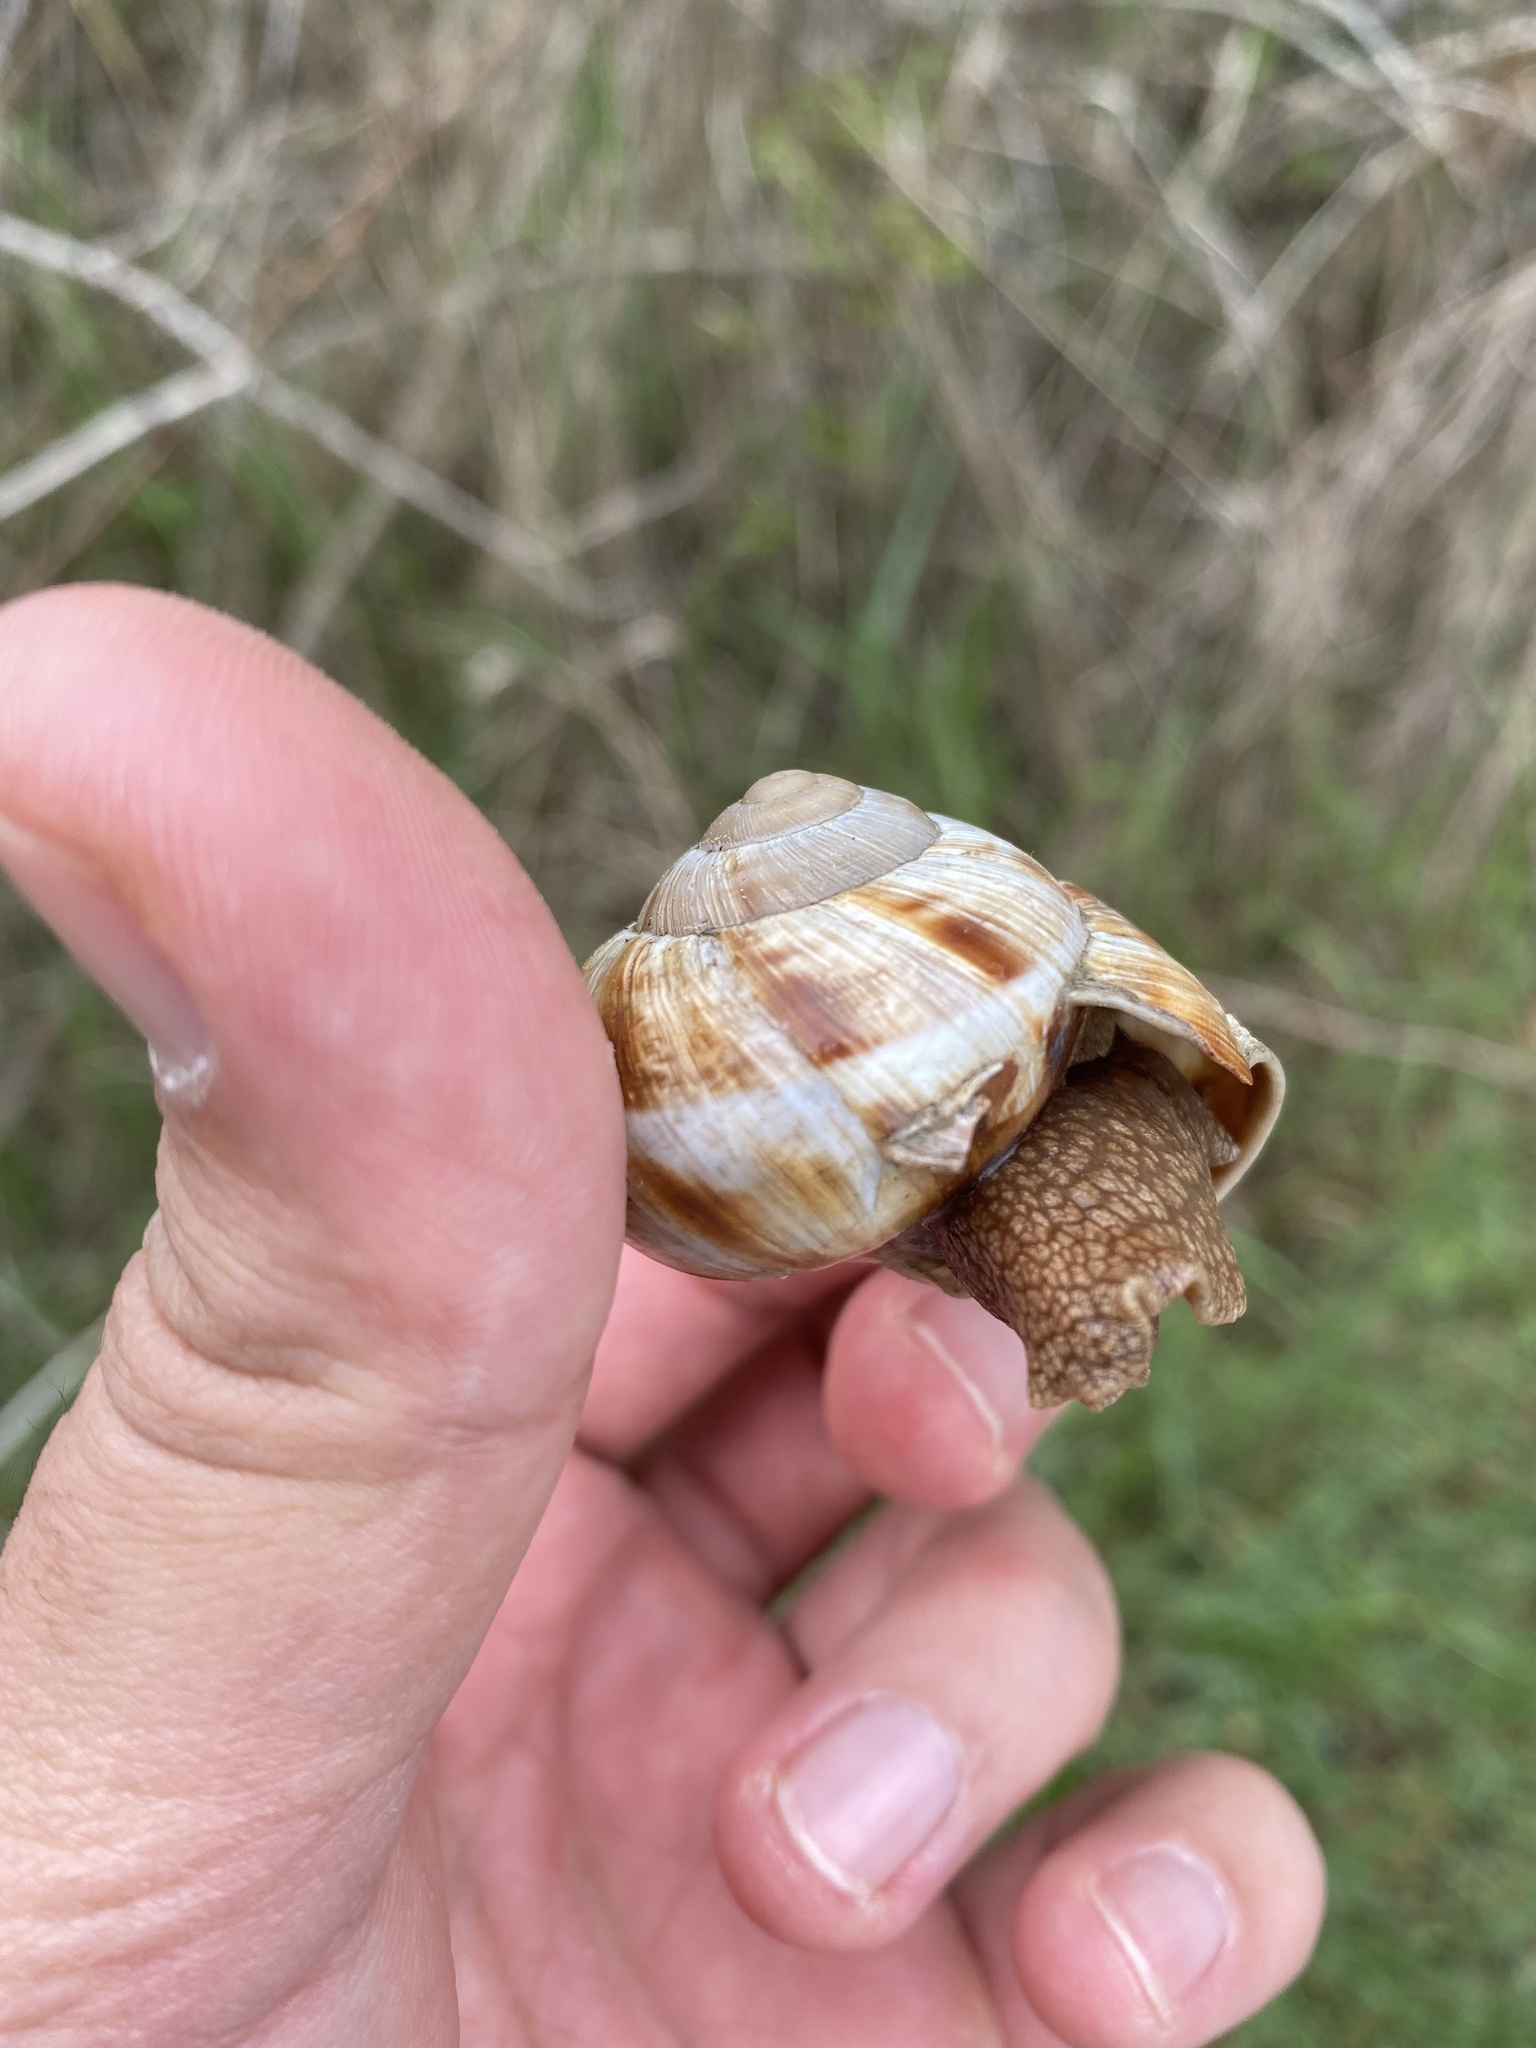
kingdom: Animalia
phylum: Mollusca
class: Gastropoda
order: Stylommatophora
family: Helicidae
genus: Helix
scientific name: Helix lucorum
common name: Turkish snail
